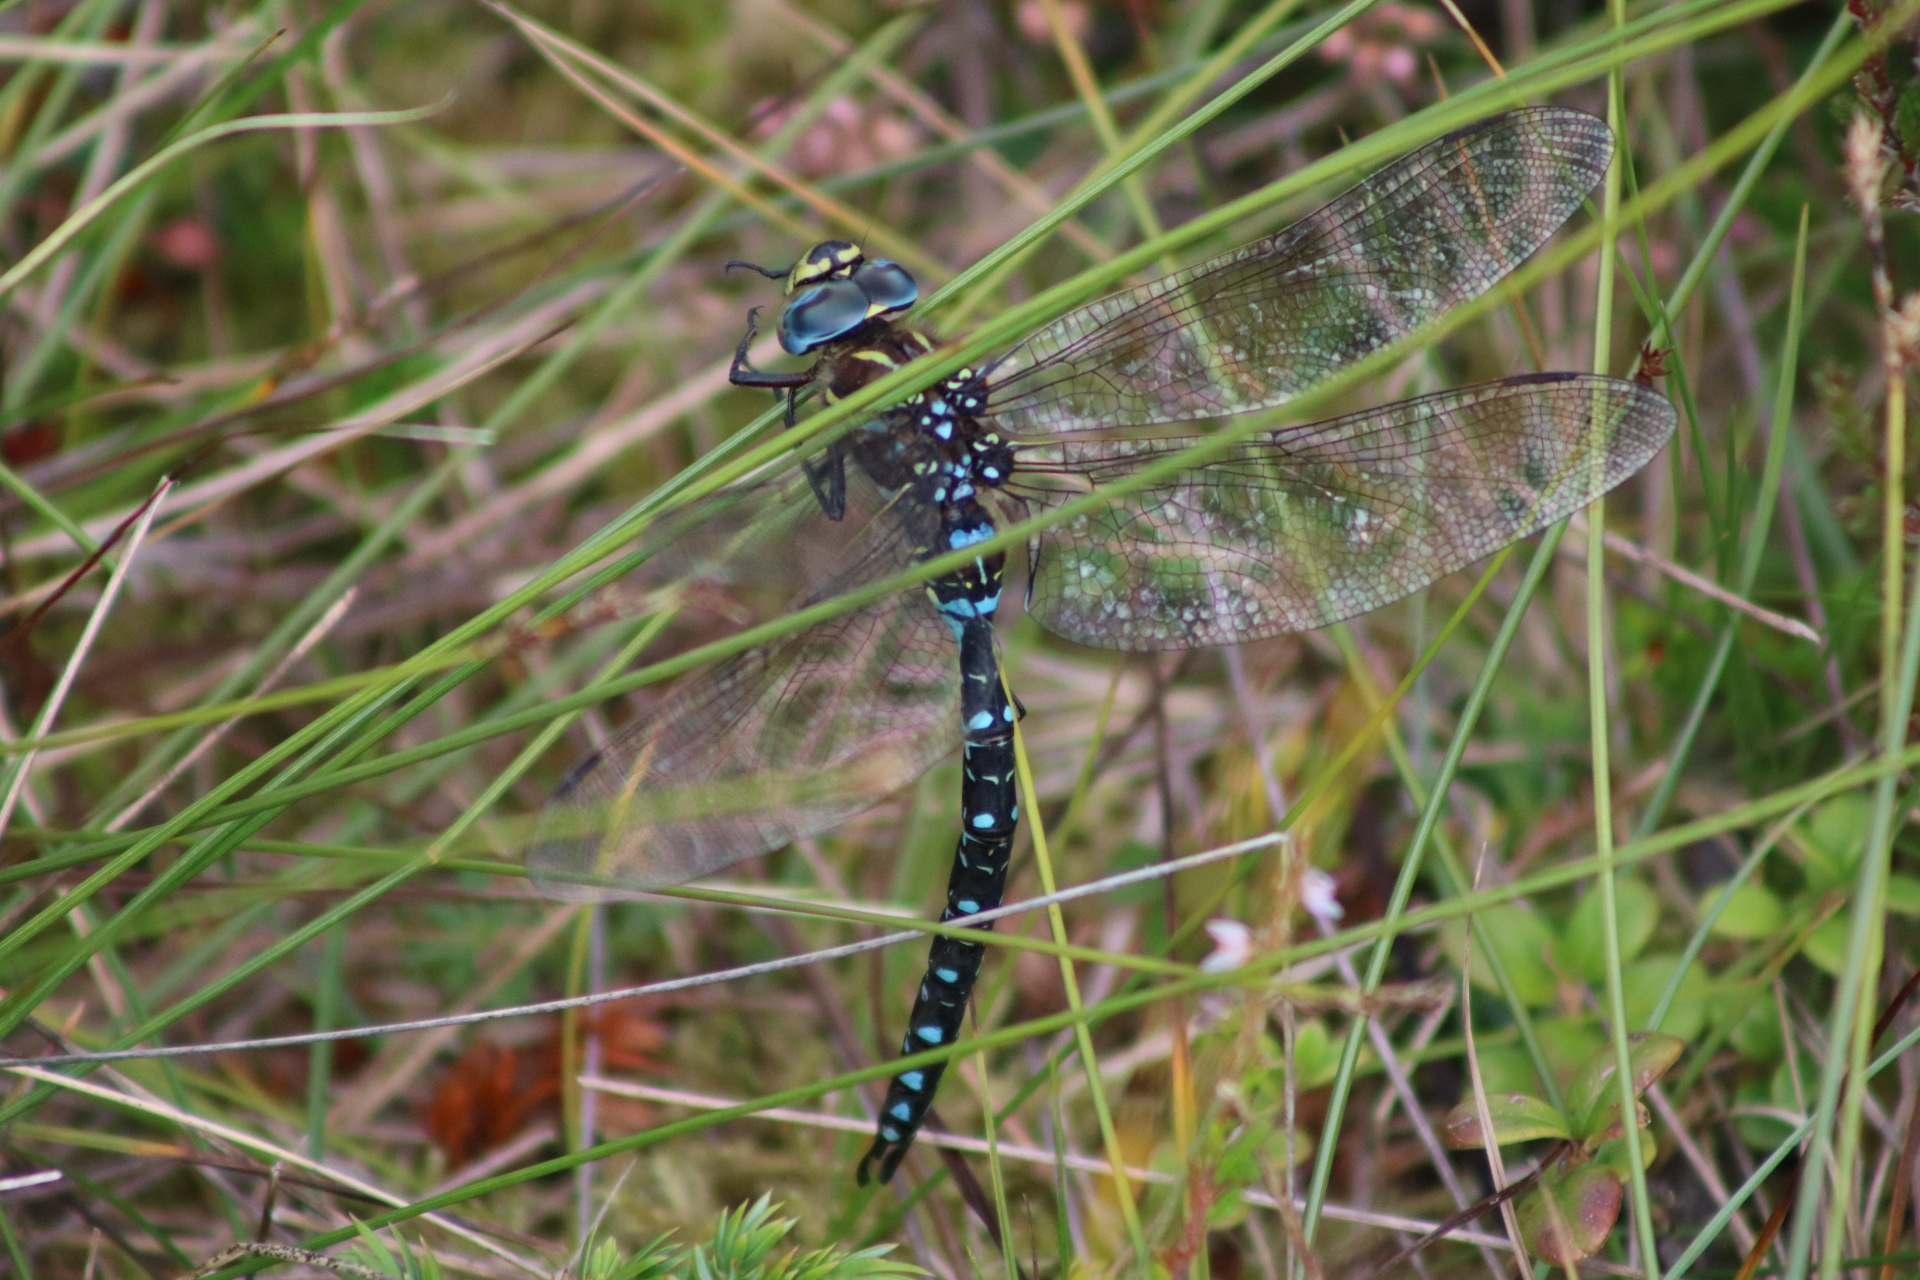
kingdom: Animalia
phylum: Arthropoda
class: Insecta
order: Odonata
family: Aeshnidae
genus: Aeshna
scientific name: Aeshna juncea
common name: Moorland hawker
